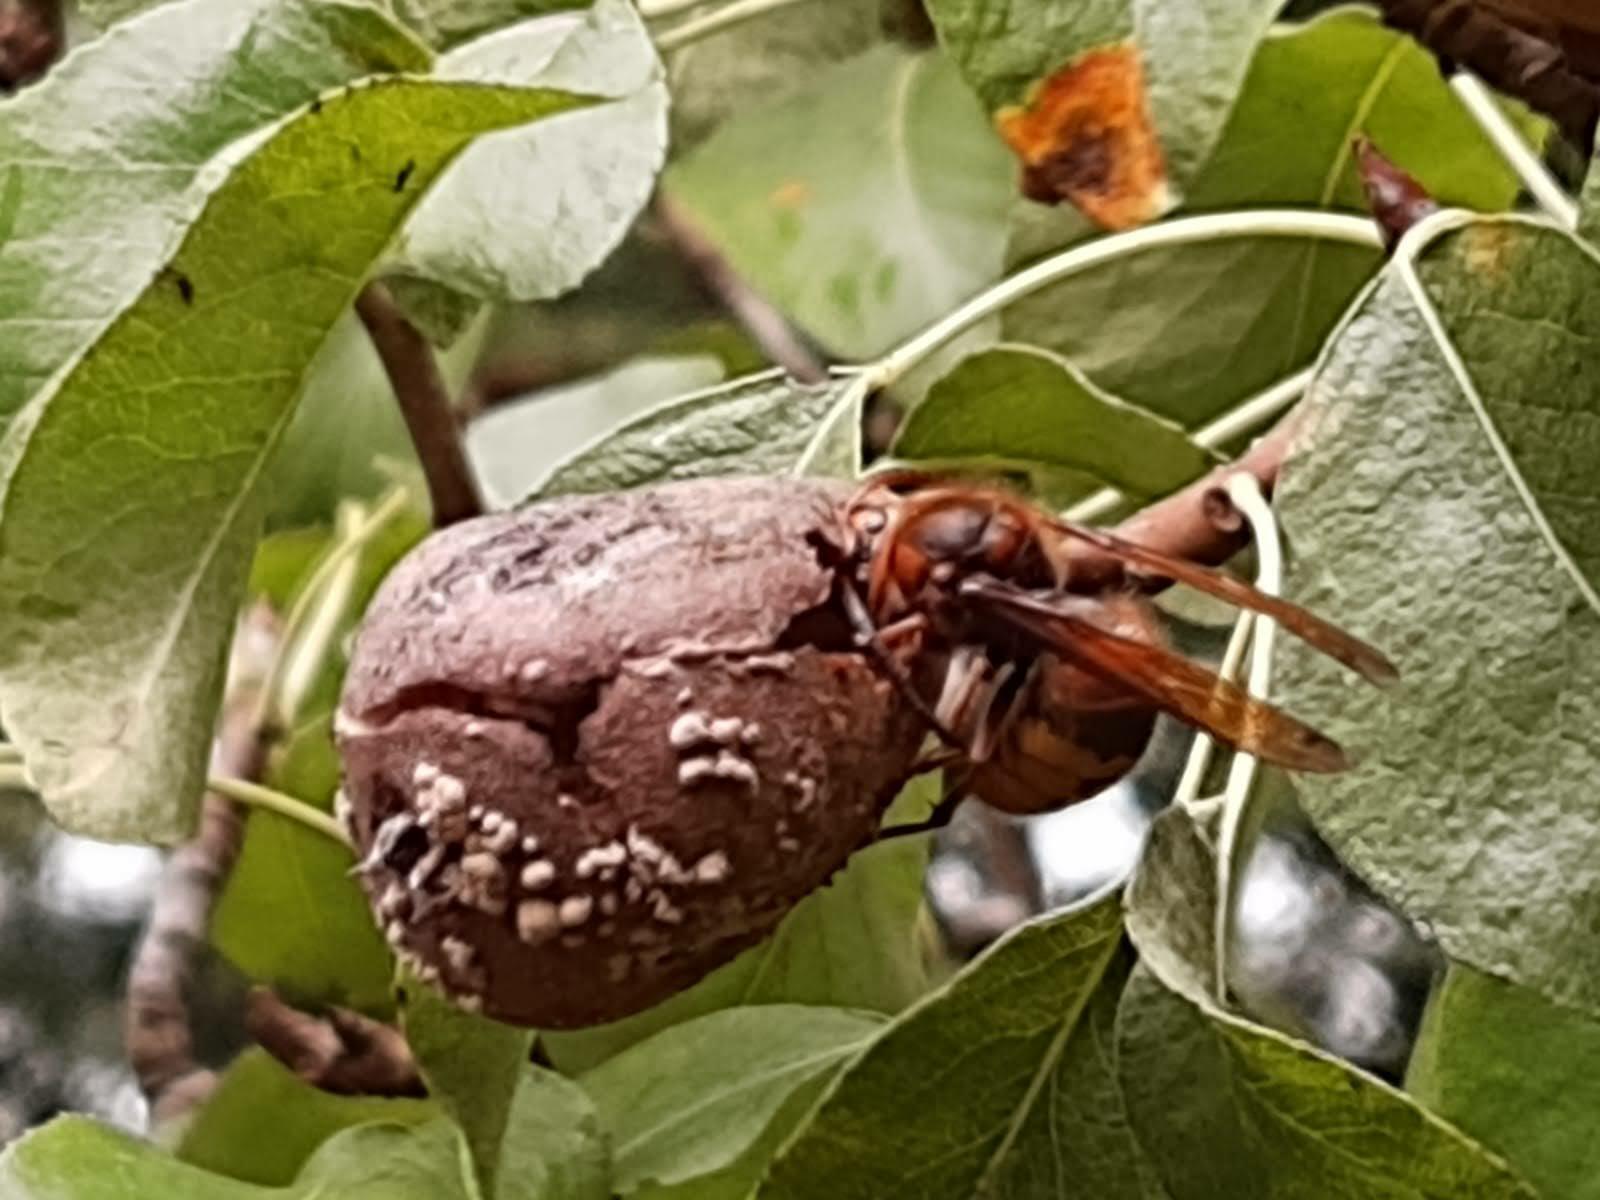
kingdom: Animalia
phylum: Arthropoda
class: Insecta
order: Hymenoptera
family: Vespidae
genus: Vespa
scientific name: Vespa crabro
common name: Hornet
